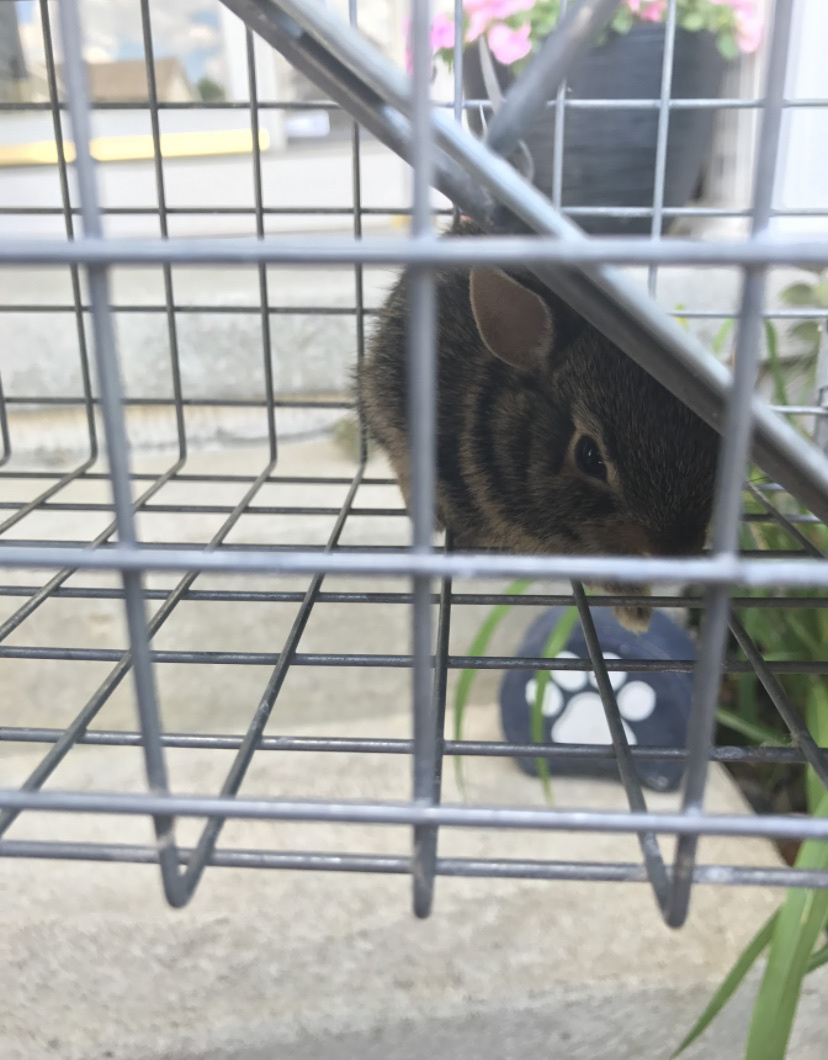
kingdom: Animalia
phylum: Chordata
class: Mammalia
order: Lagomorpha
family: Leporidae
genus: Sylvilagus
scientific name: Sylvilagus floridanus
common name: Eastern cottontail
